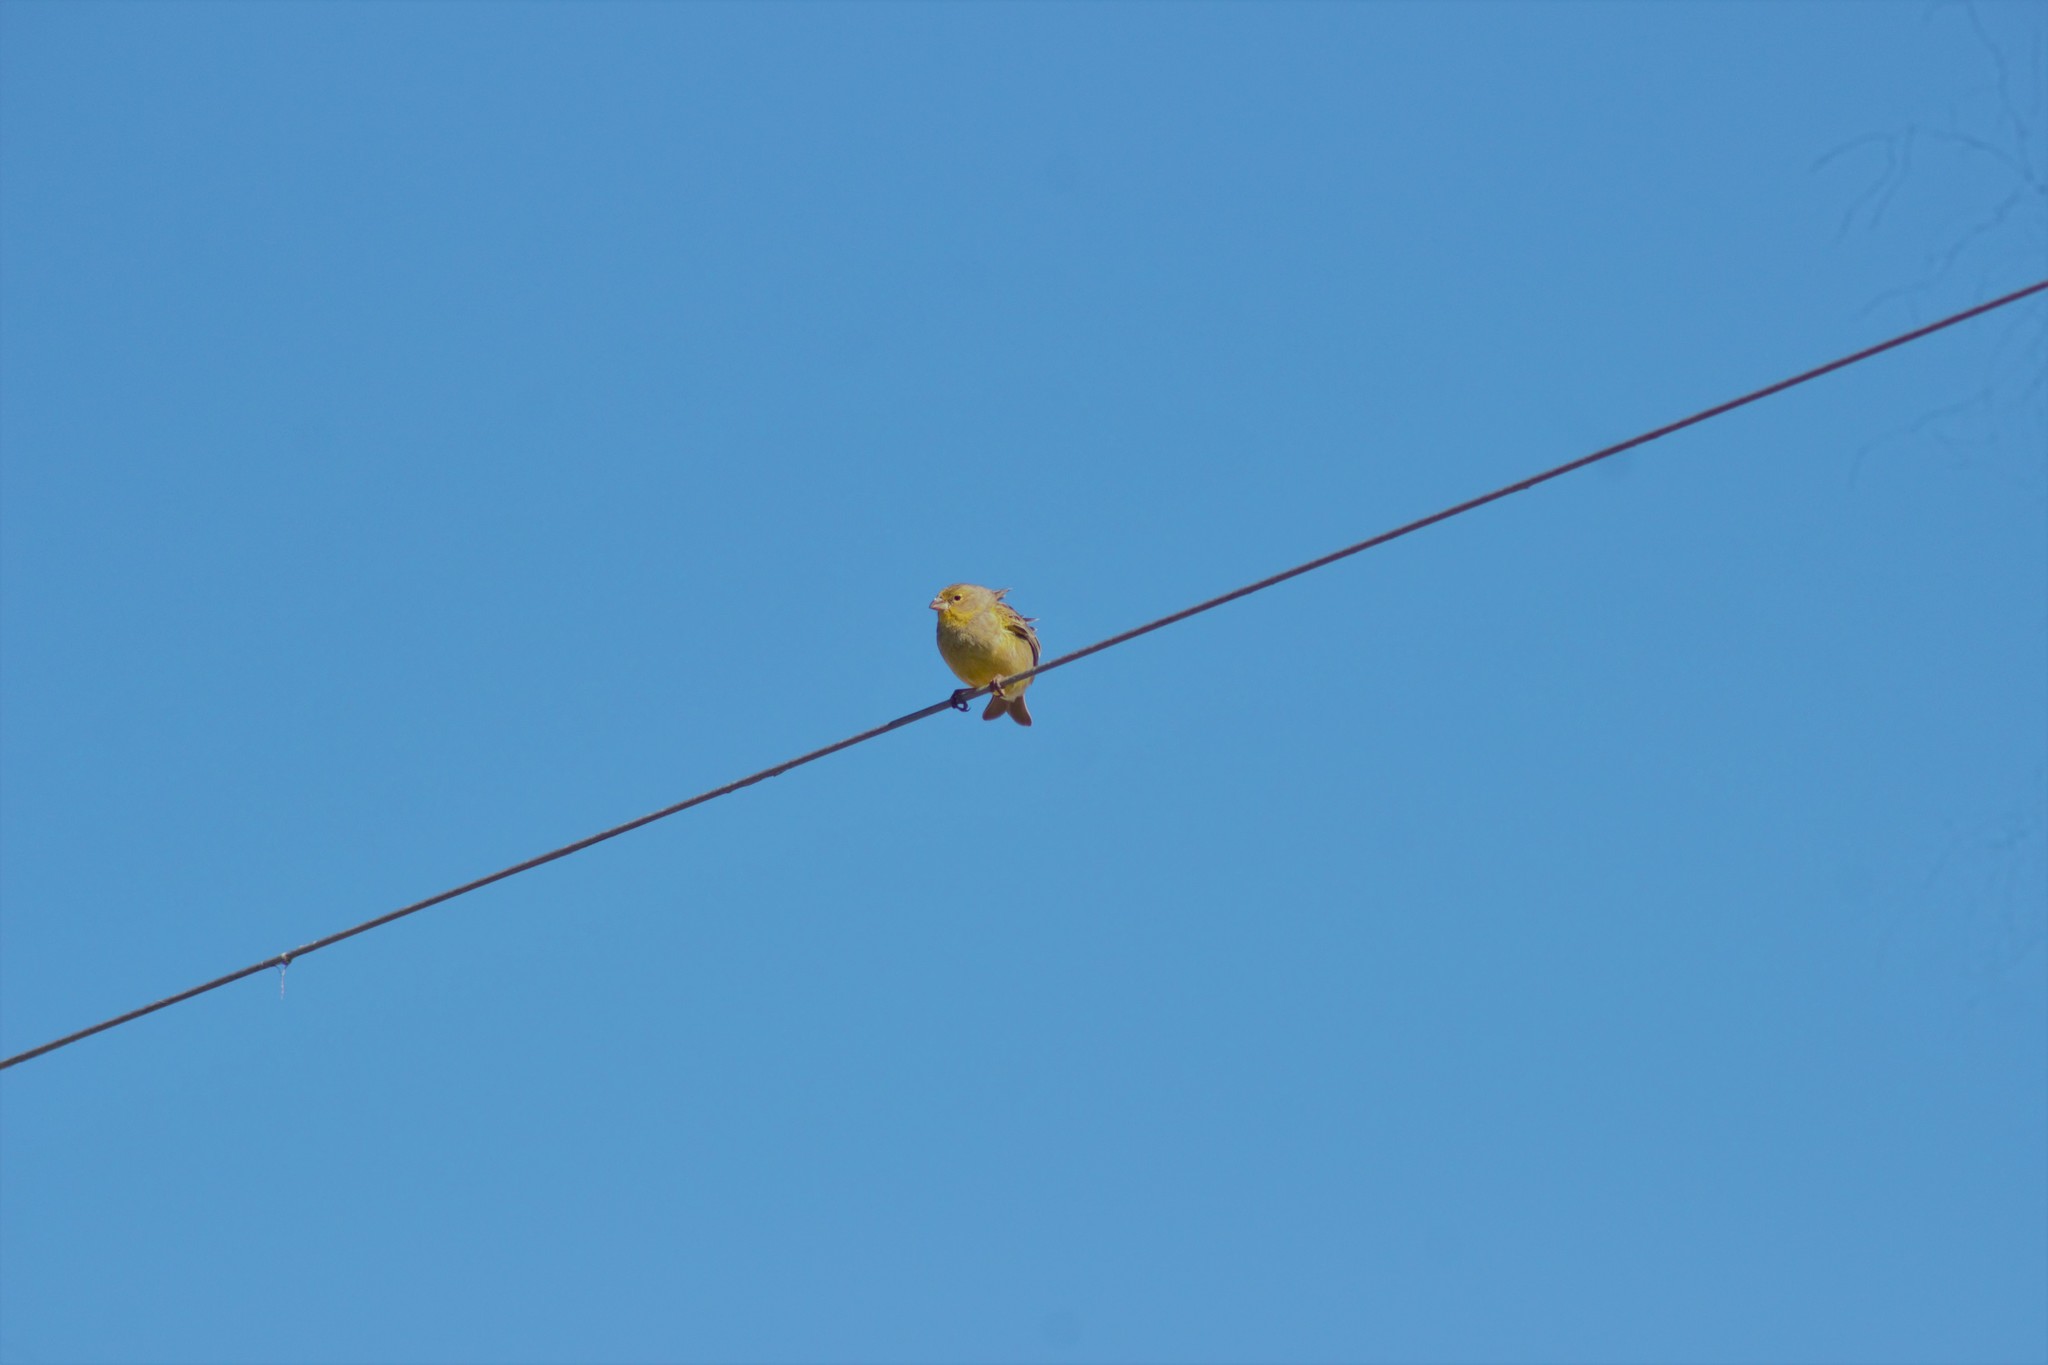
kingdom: Animalia
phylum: Chordata
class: Aves
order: Passeriformes
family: Thraupidae
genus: Sicalis
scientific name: Sicalis luteola
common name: Grassland yellow-finch
